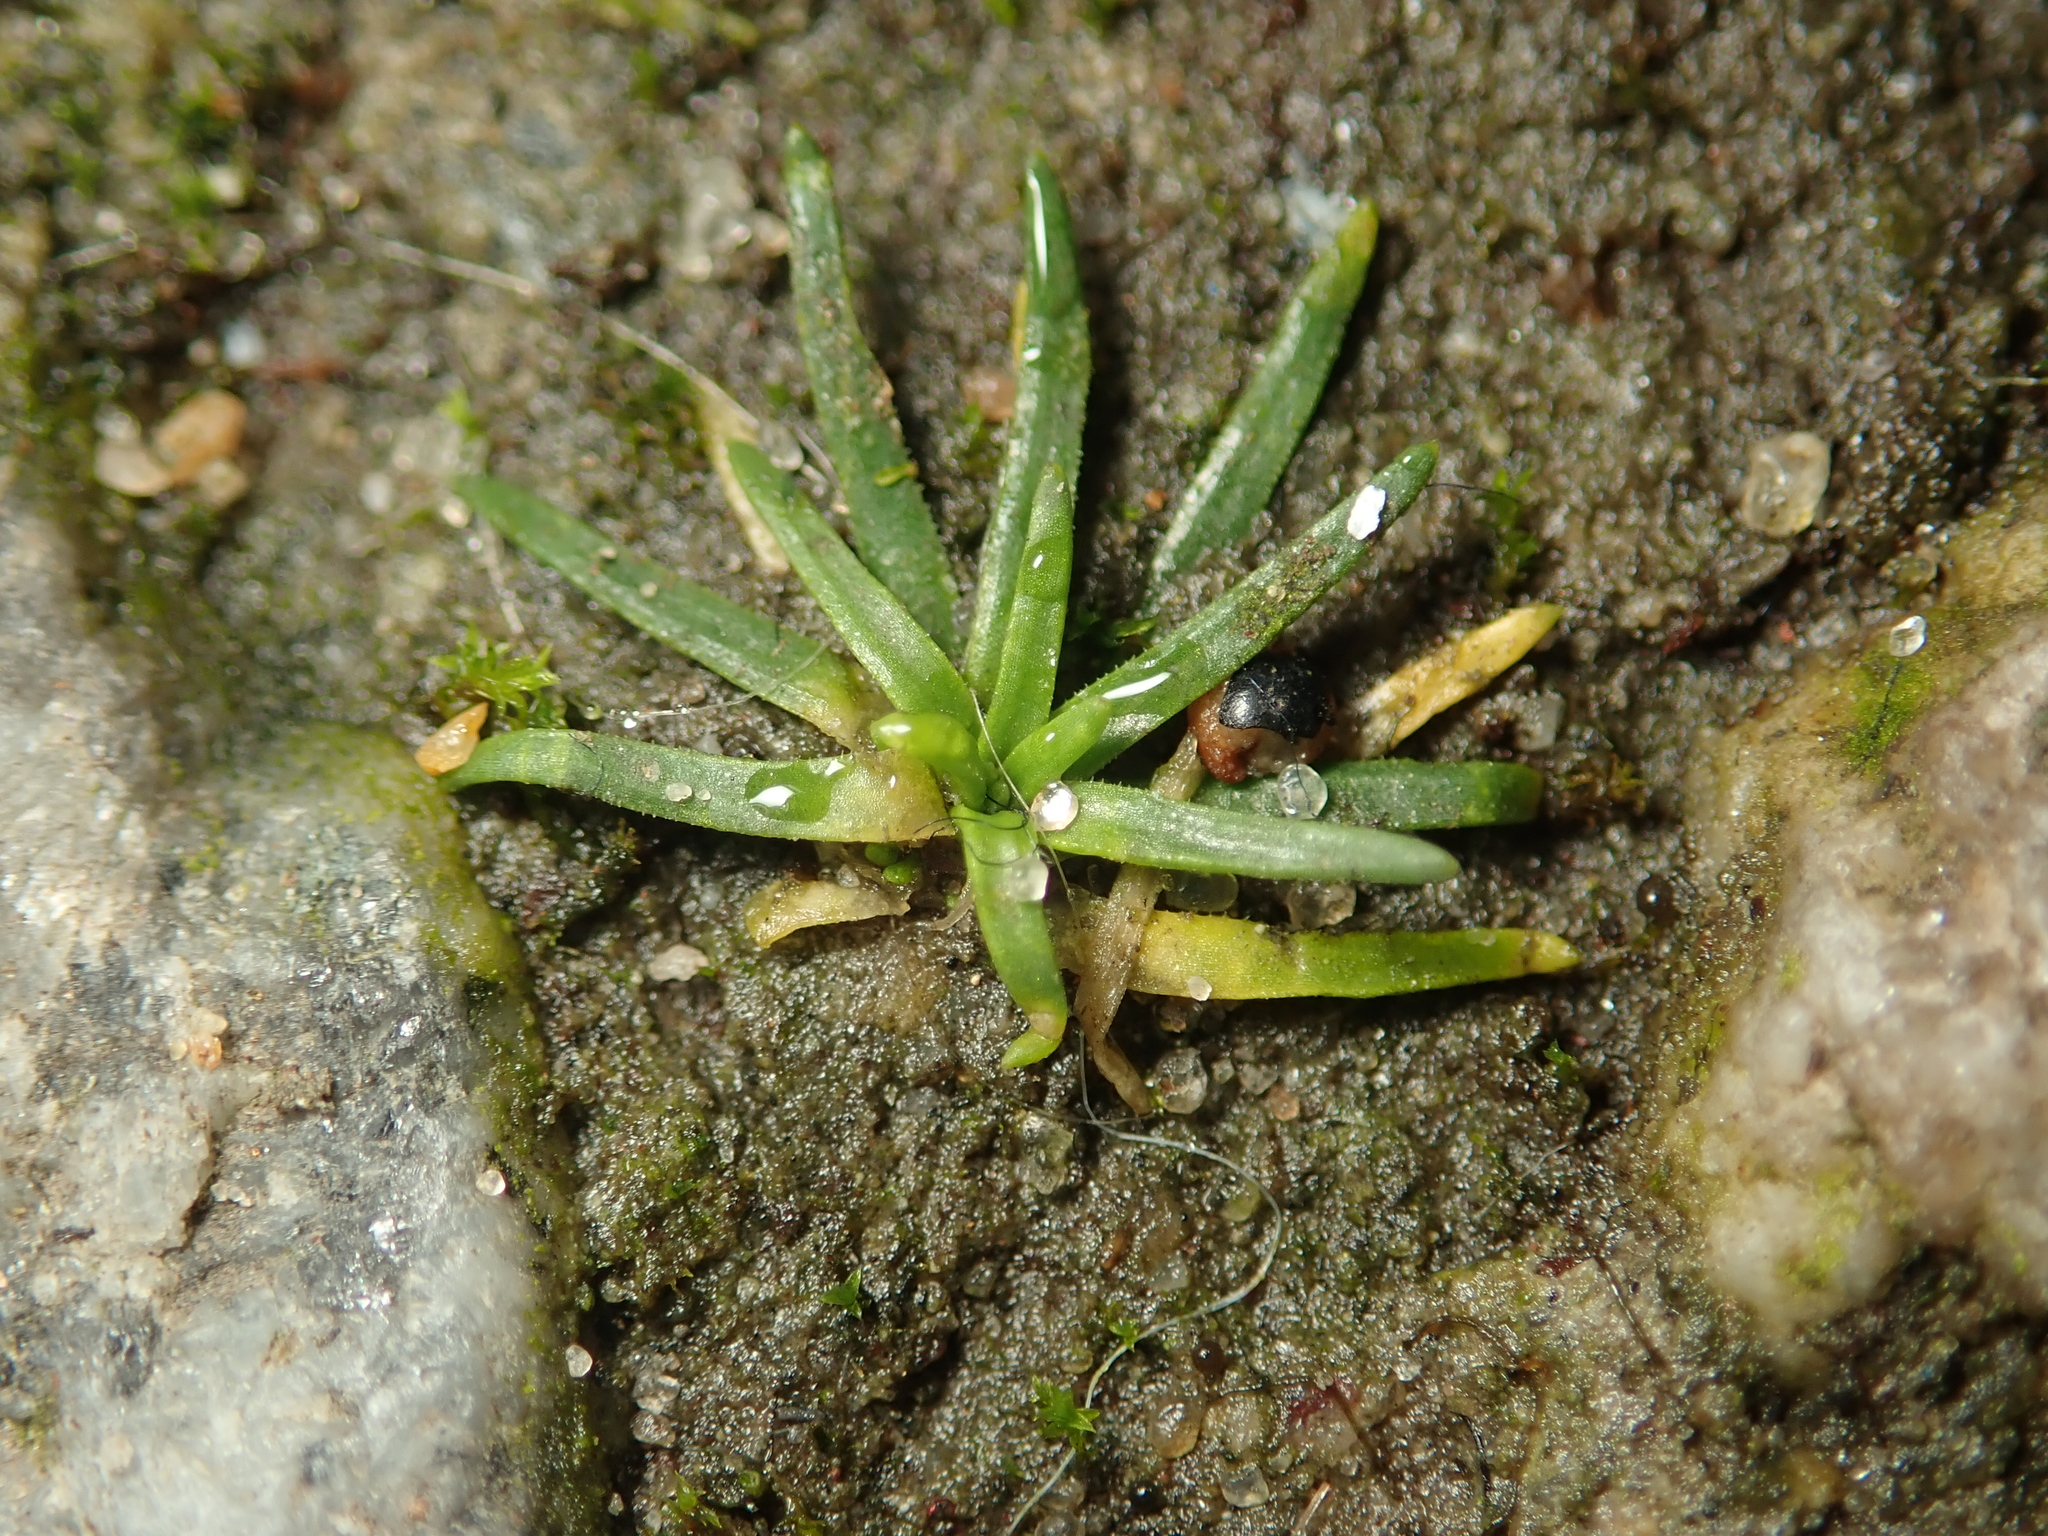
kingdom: Plantae
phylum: Tracheophyta
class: Magnoliopsida
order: Caryophyllales
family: Caryophyllaceae
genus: Sagina
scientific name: Sagina procumbens
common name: Procumbent pearlwort
